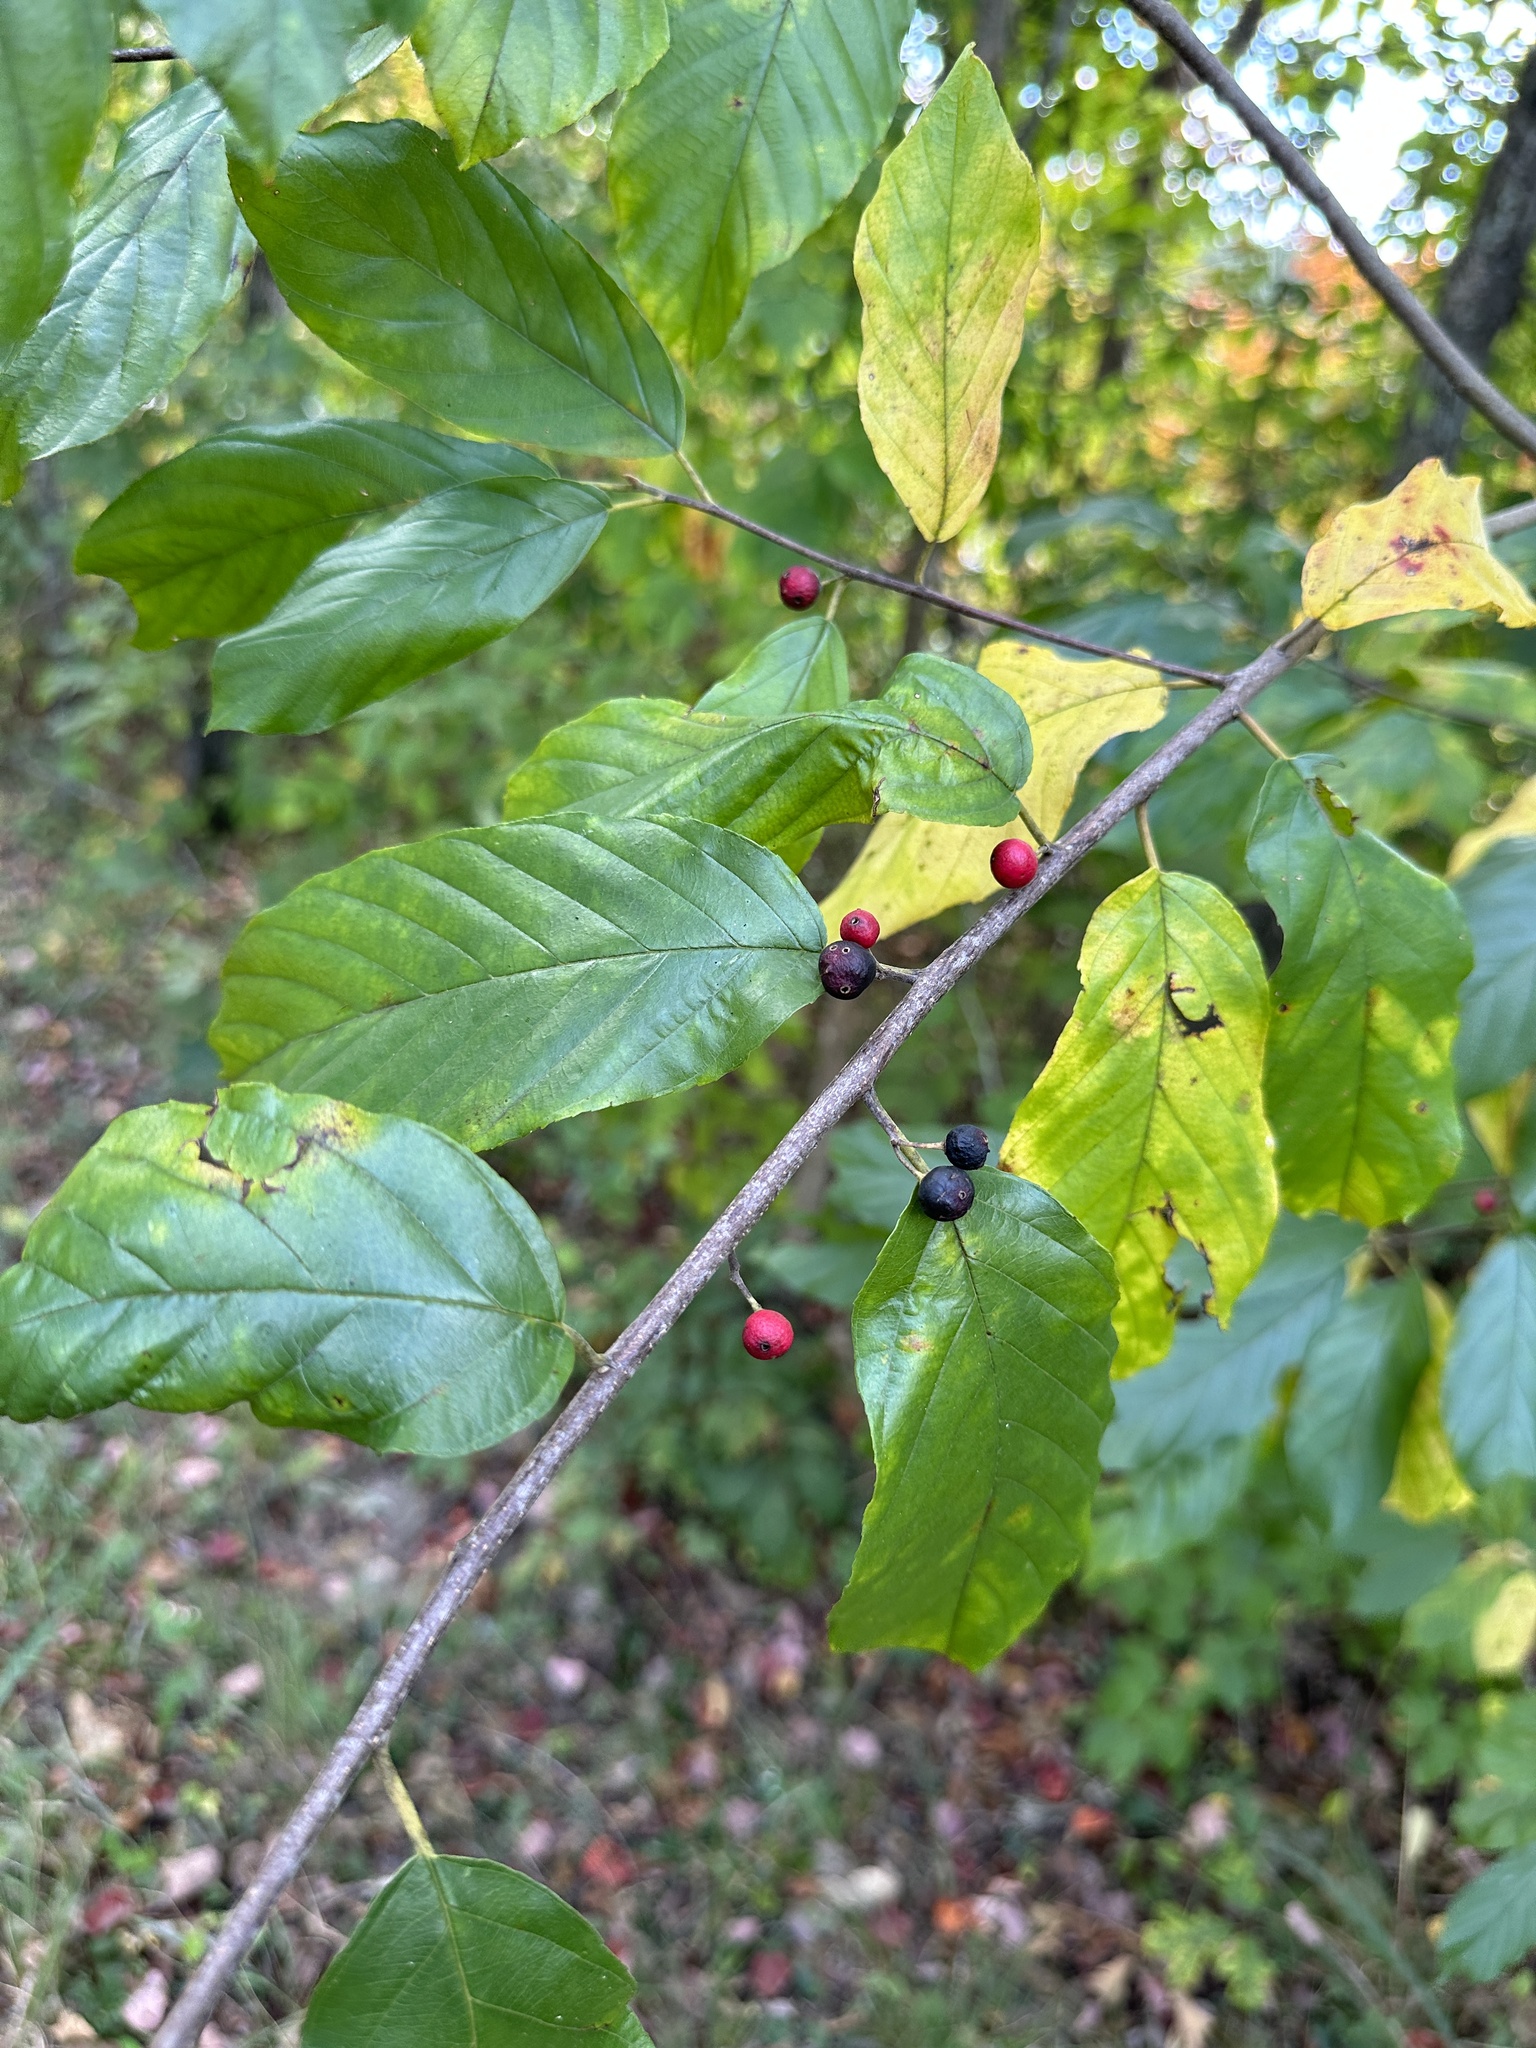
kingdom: Plantae
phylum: Tracheophyta
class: Magnoliopsida
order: Rosales
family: Rhamnaceae
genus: Frangula
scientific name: Frangula caroliniana
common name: Carolina buckthorn
